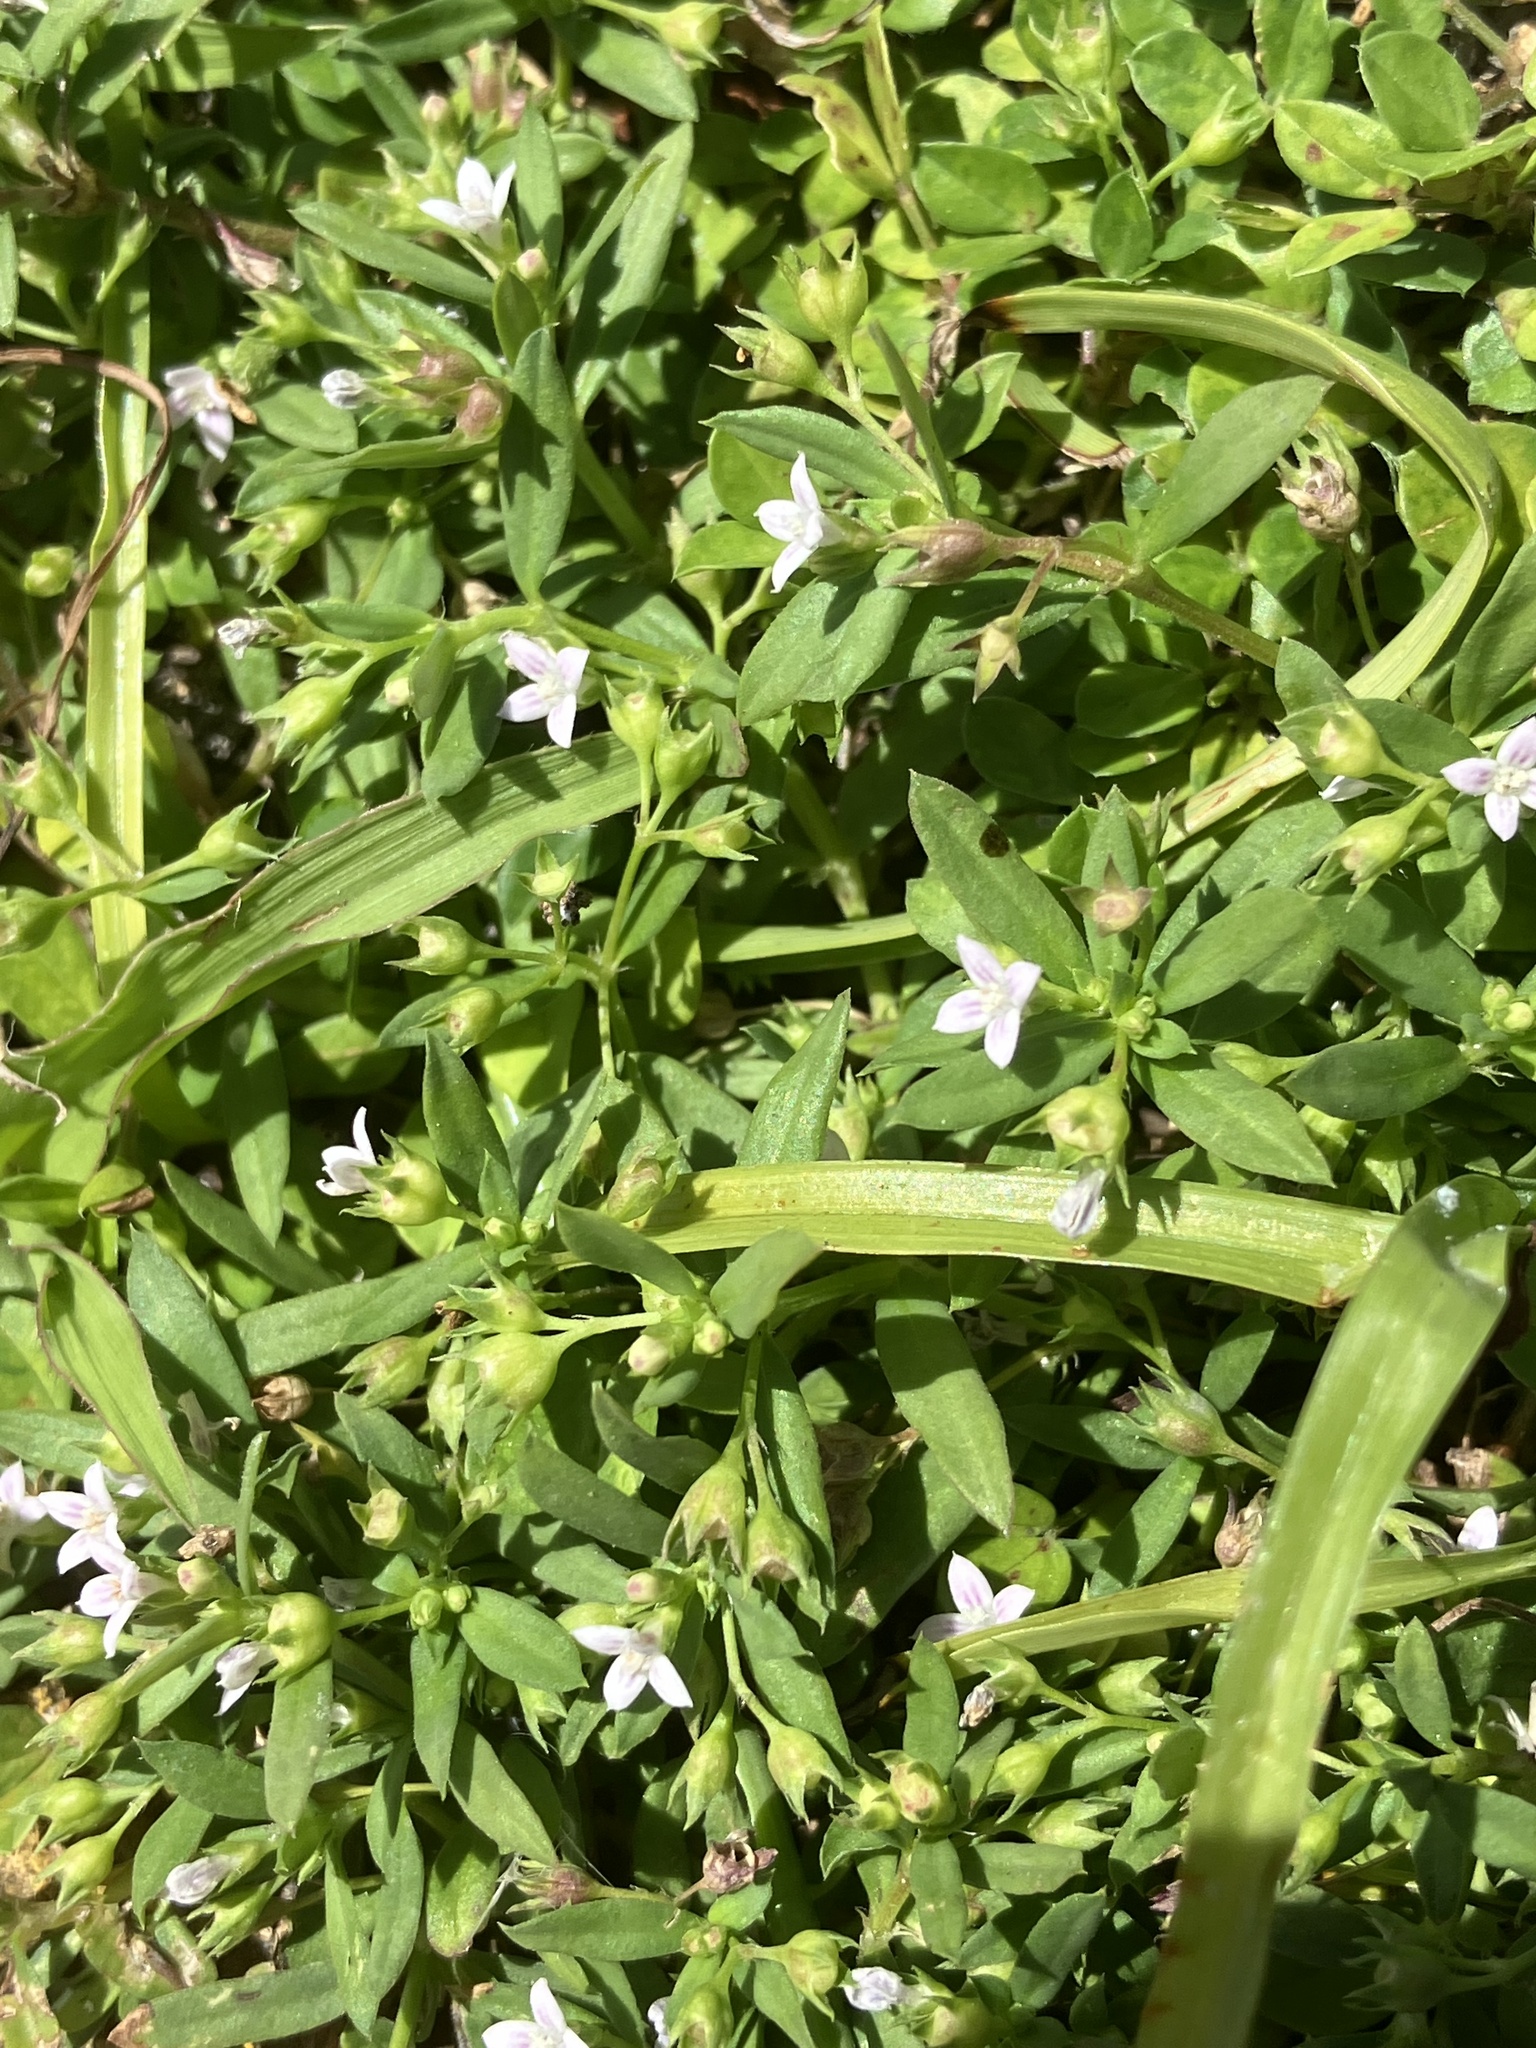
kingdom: Plantae
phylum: Tracheophyta
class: Magnoliopsida
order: Gentianales
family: Rubiaceae
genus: Oldenlandia
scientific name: Oldenlandia corymbosa
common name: Flat-top mille graines
